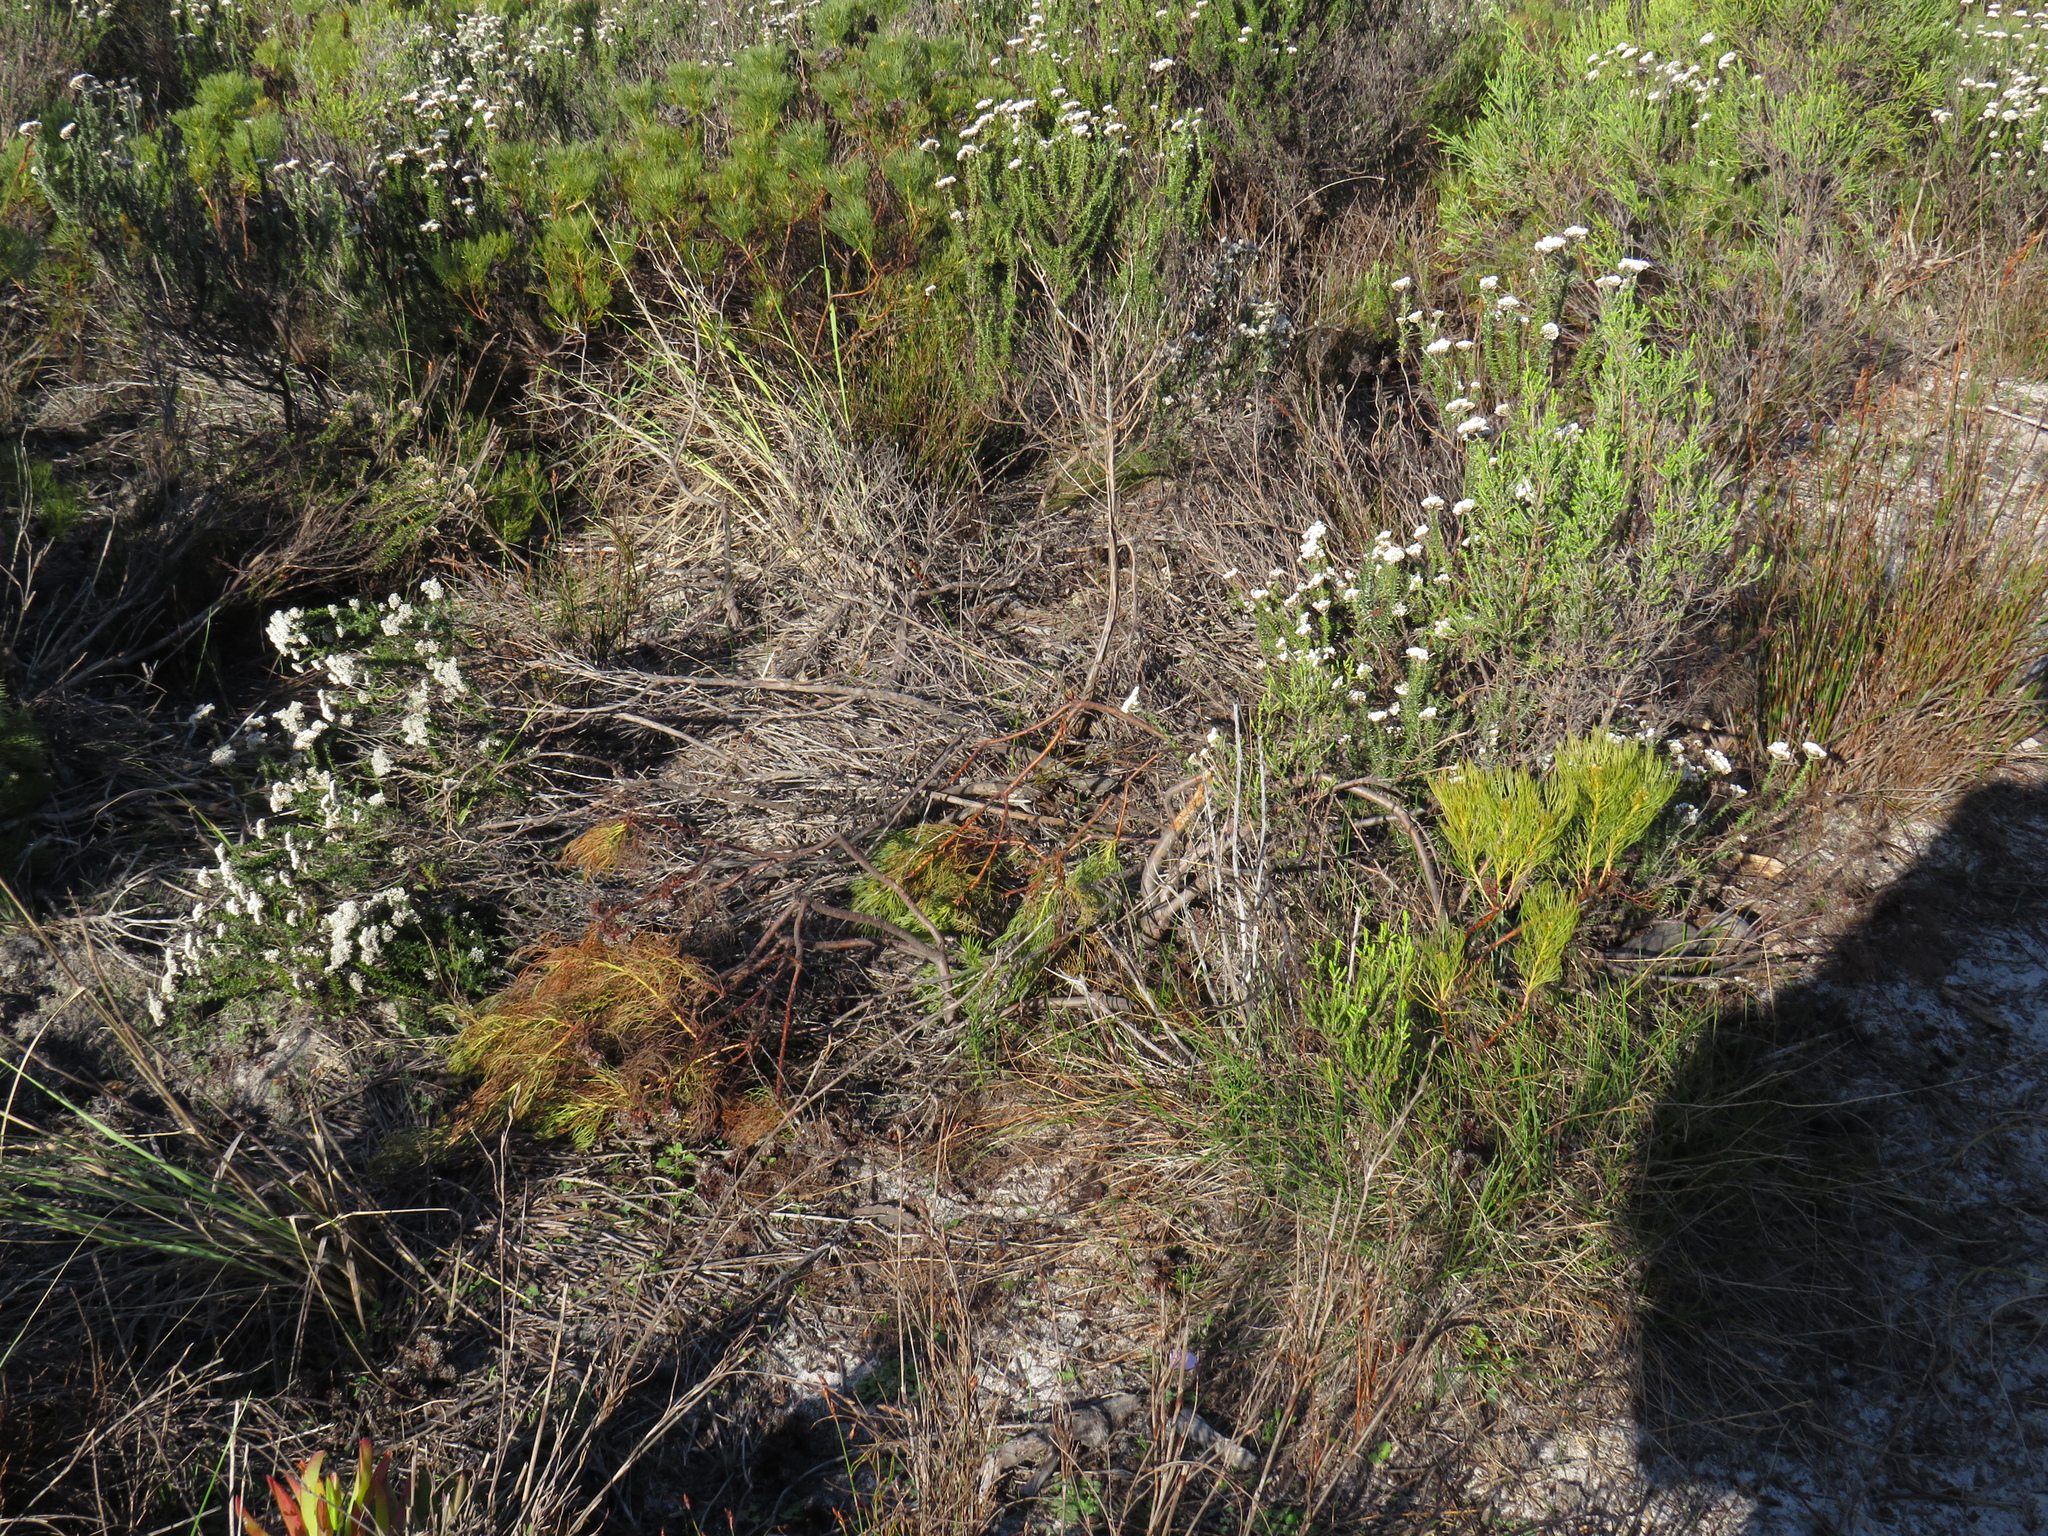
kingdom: Plantae
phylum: Tracheophyta
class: Magnoliopsida
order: Proteales
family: Proteaceae
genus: Serruria
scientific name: Serruria glomerata
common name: Cluster spiderhead
